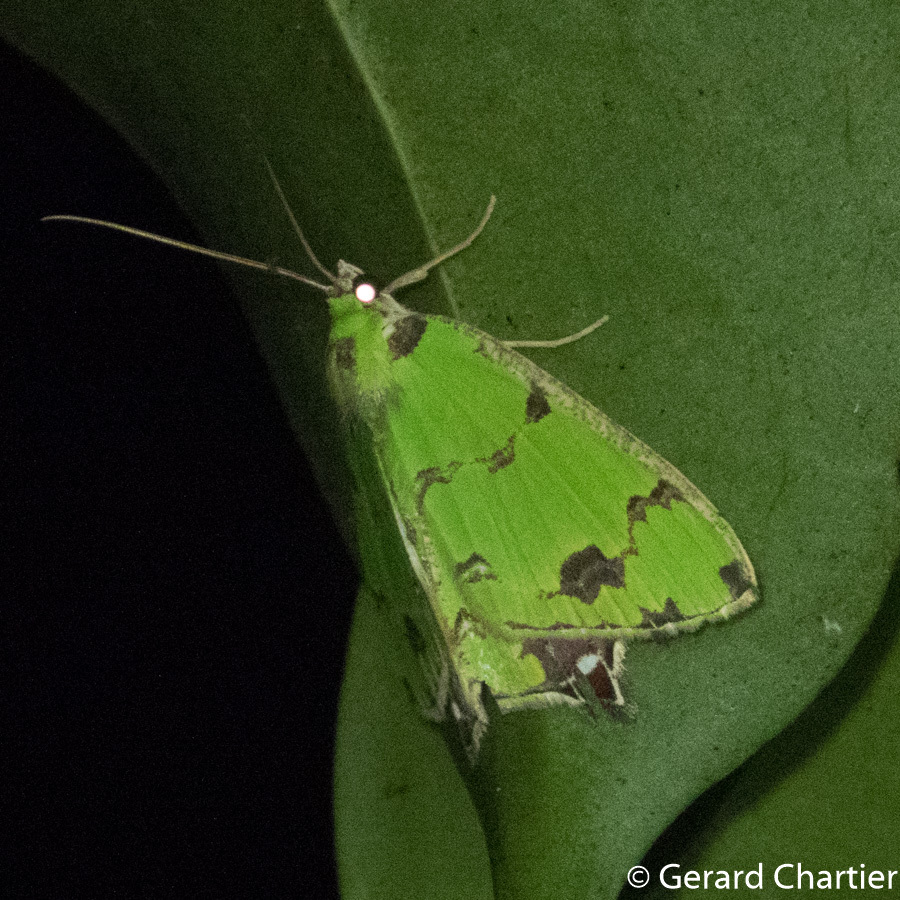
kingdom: Animalia
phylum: Arthropoda
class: Insecta
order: Lepidoptera
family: Geometridae
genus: Agathia
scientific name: Agathia lycaenaria
